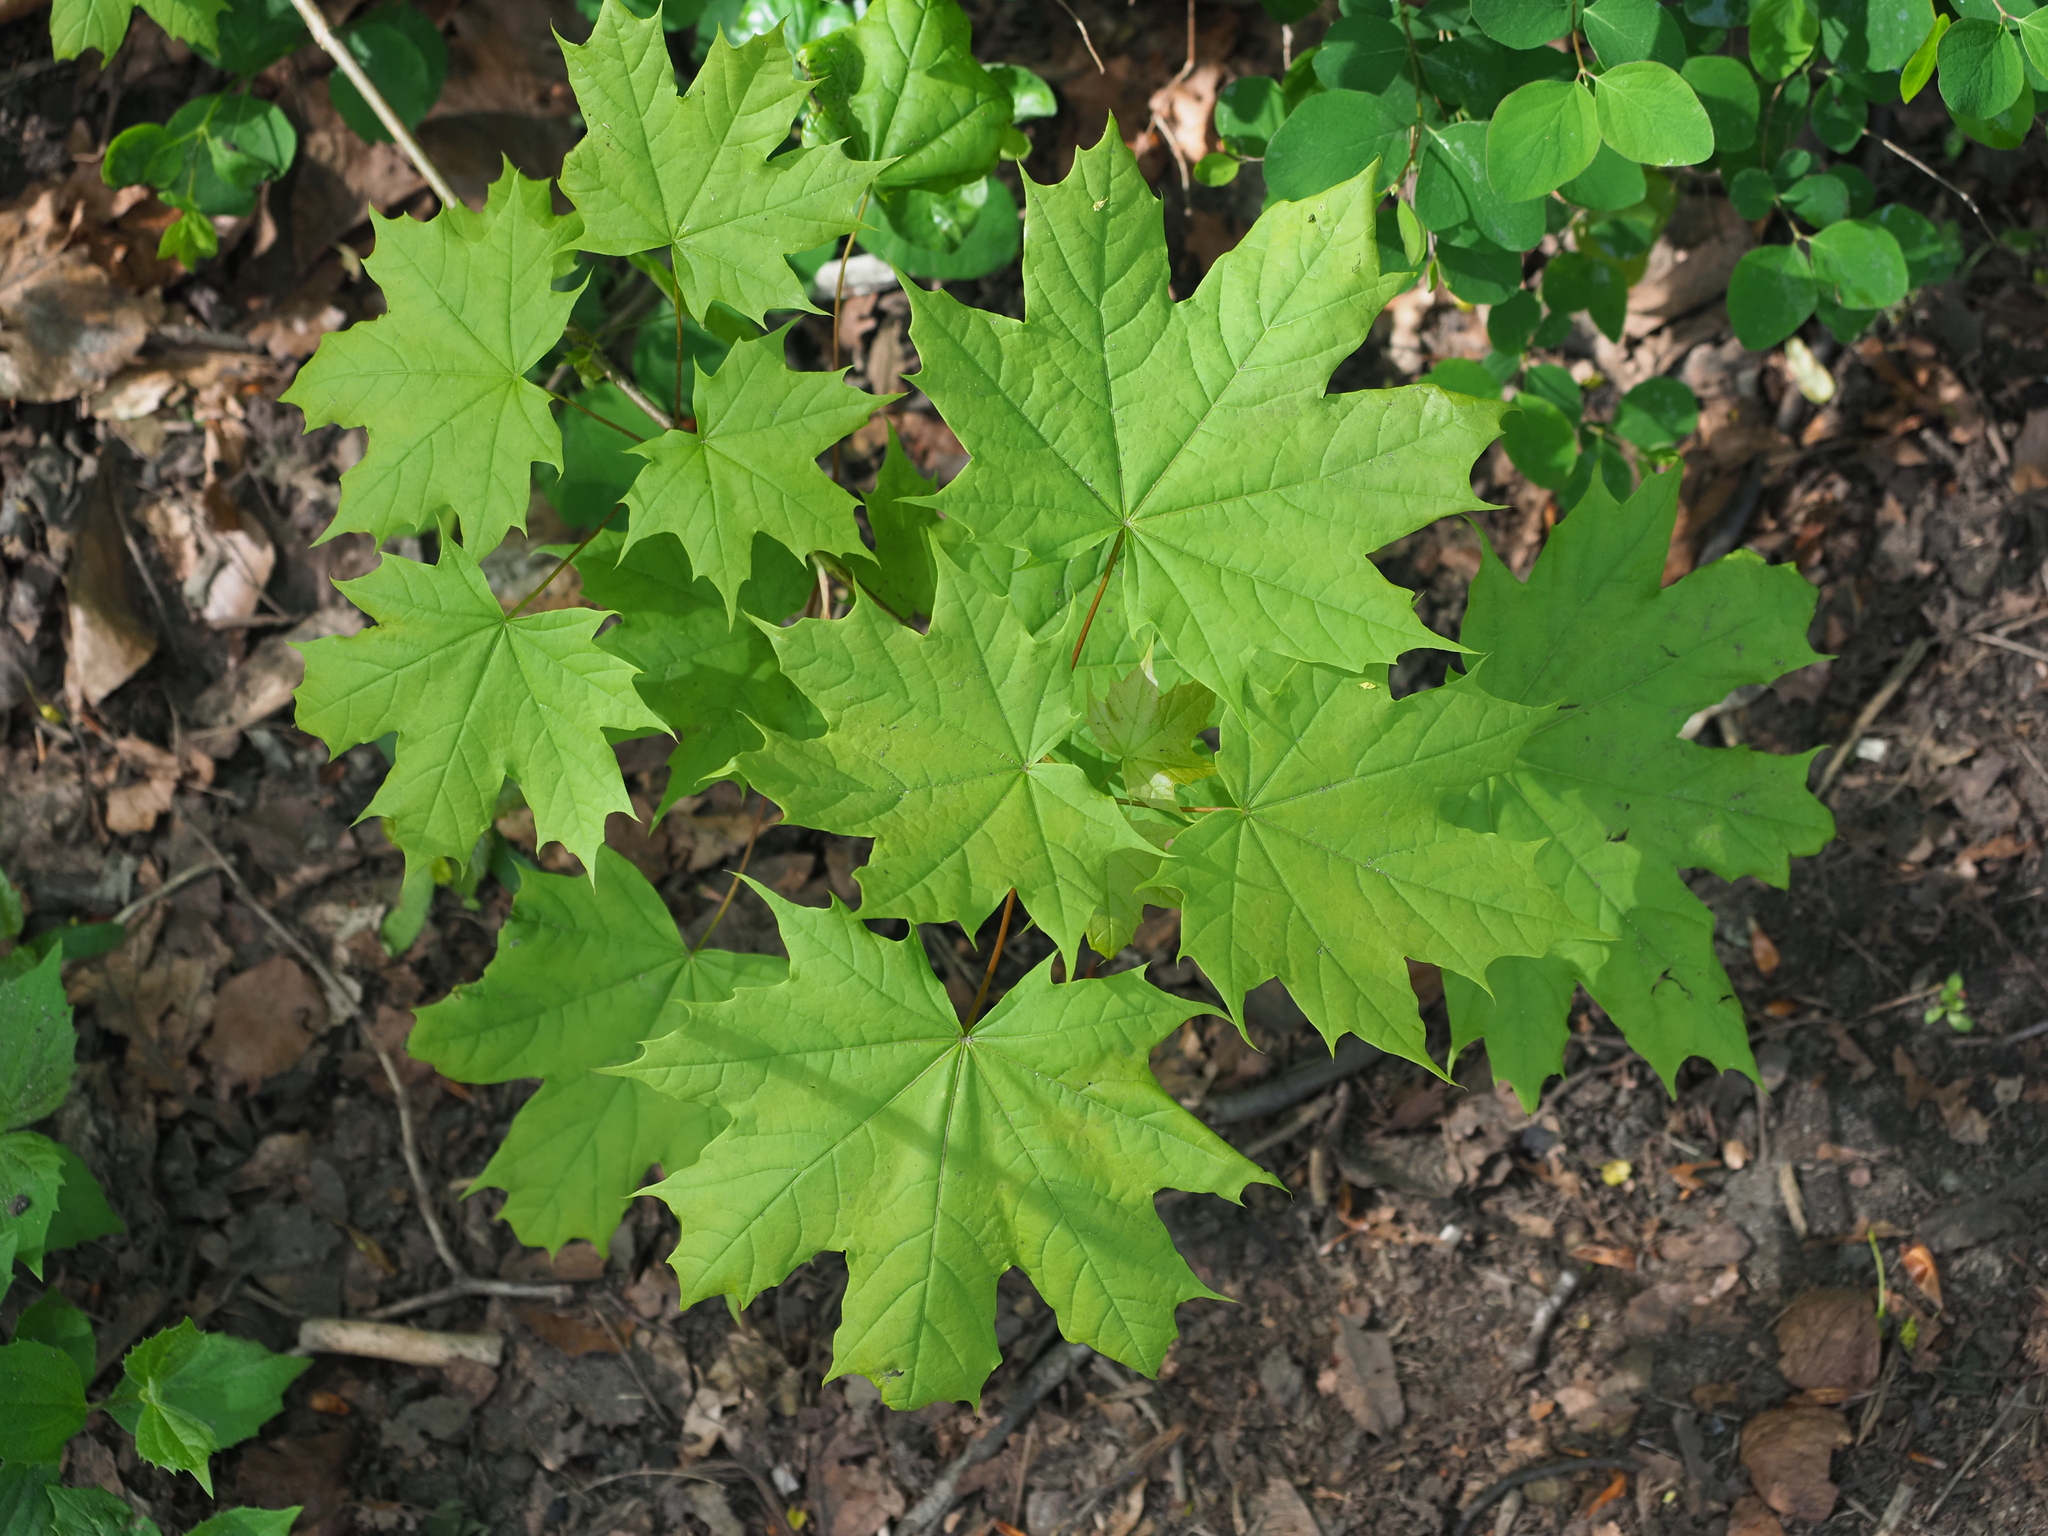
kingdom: Plantae
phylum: Tracheophyta
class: Magnoliopsida
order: Sapindales
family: Sapindaceae
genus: Acer
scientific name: Acer platanoides
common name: Norway maple
